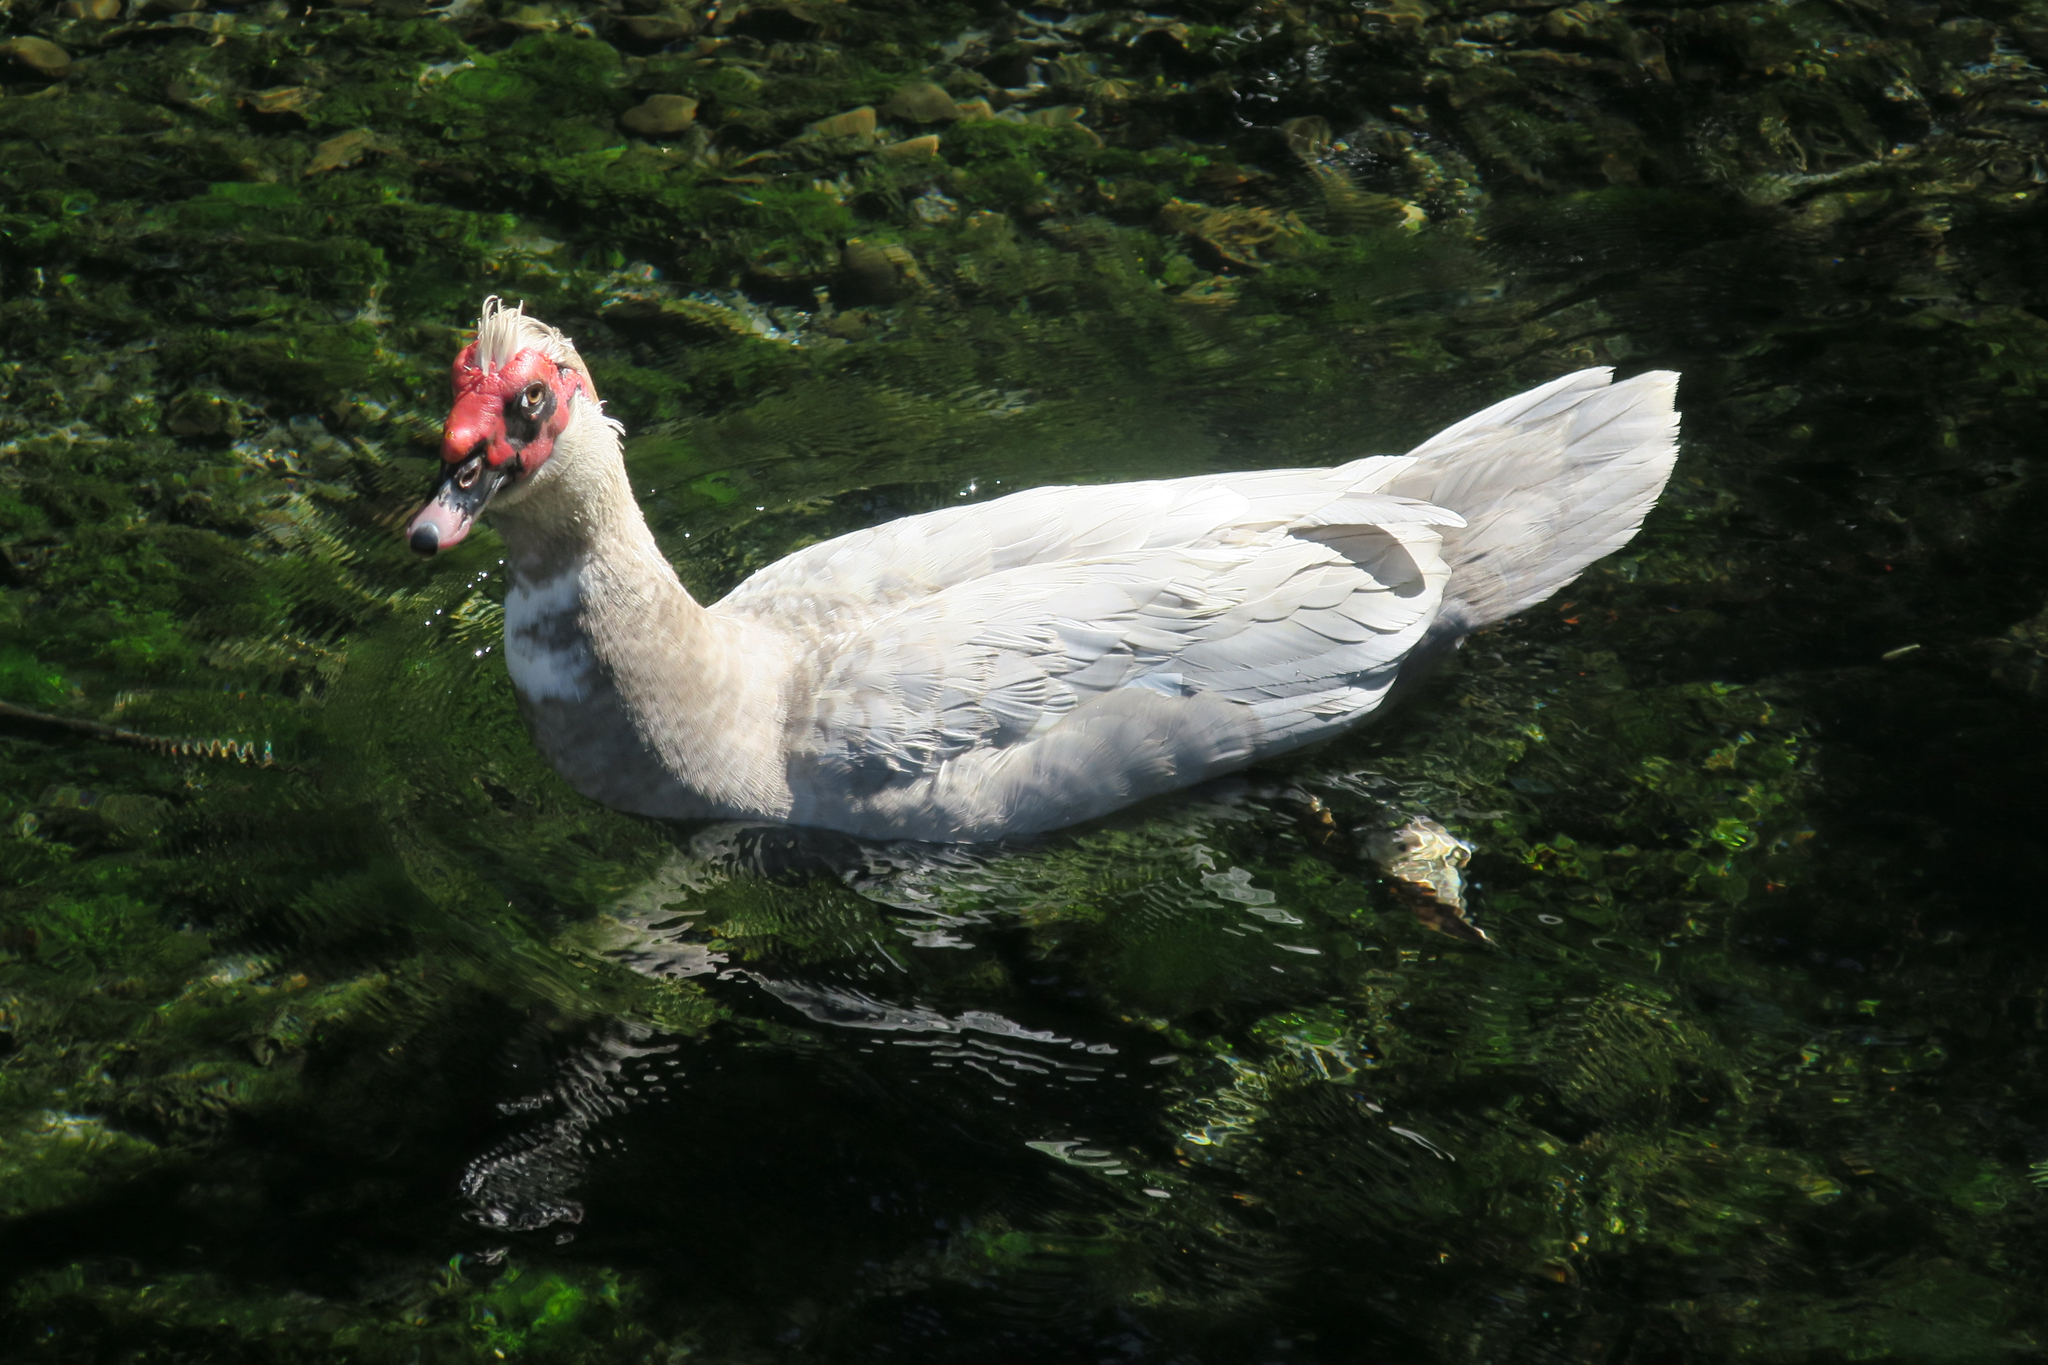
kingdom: Animalia
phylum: Chordata
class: Aves
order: Anseriformes
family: Anatidae
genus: Cairina
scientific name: Cairina moschata
